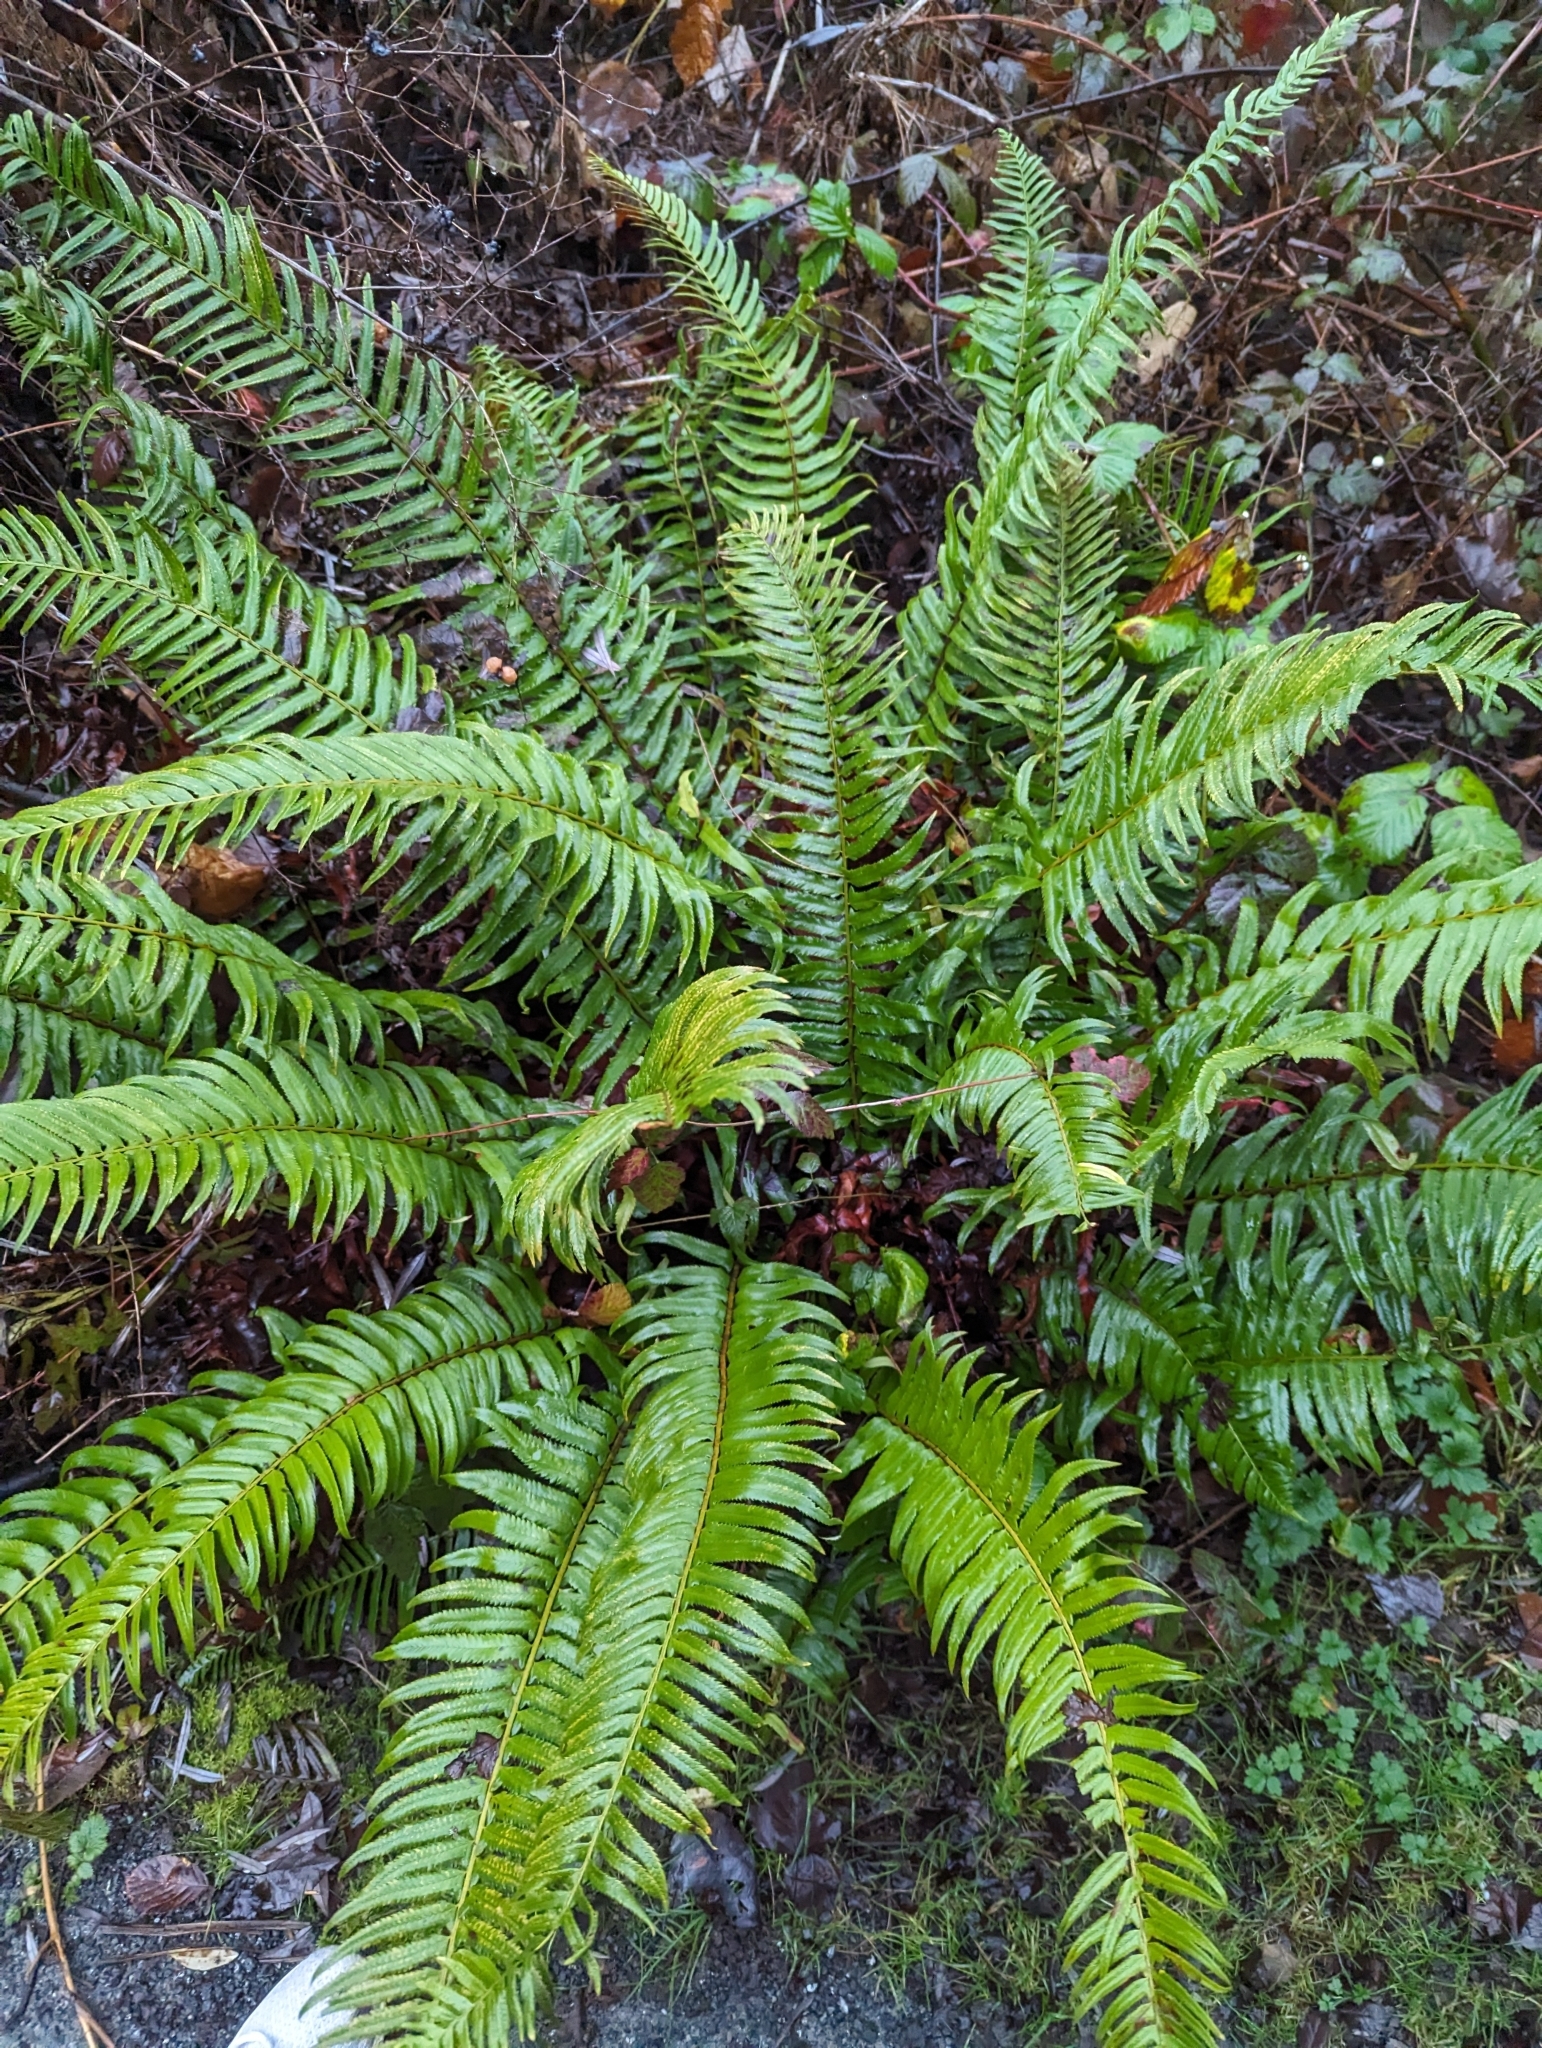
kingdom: Plantae
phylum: Tracheophyta
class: Polypodiopsida
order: Polypodiales
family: Dryopteridaceae
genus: Polystichum
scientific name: Polystichum munitum
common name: Western sword-fern
